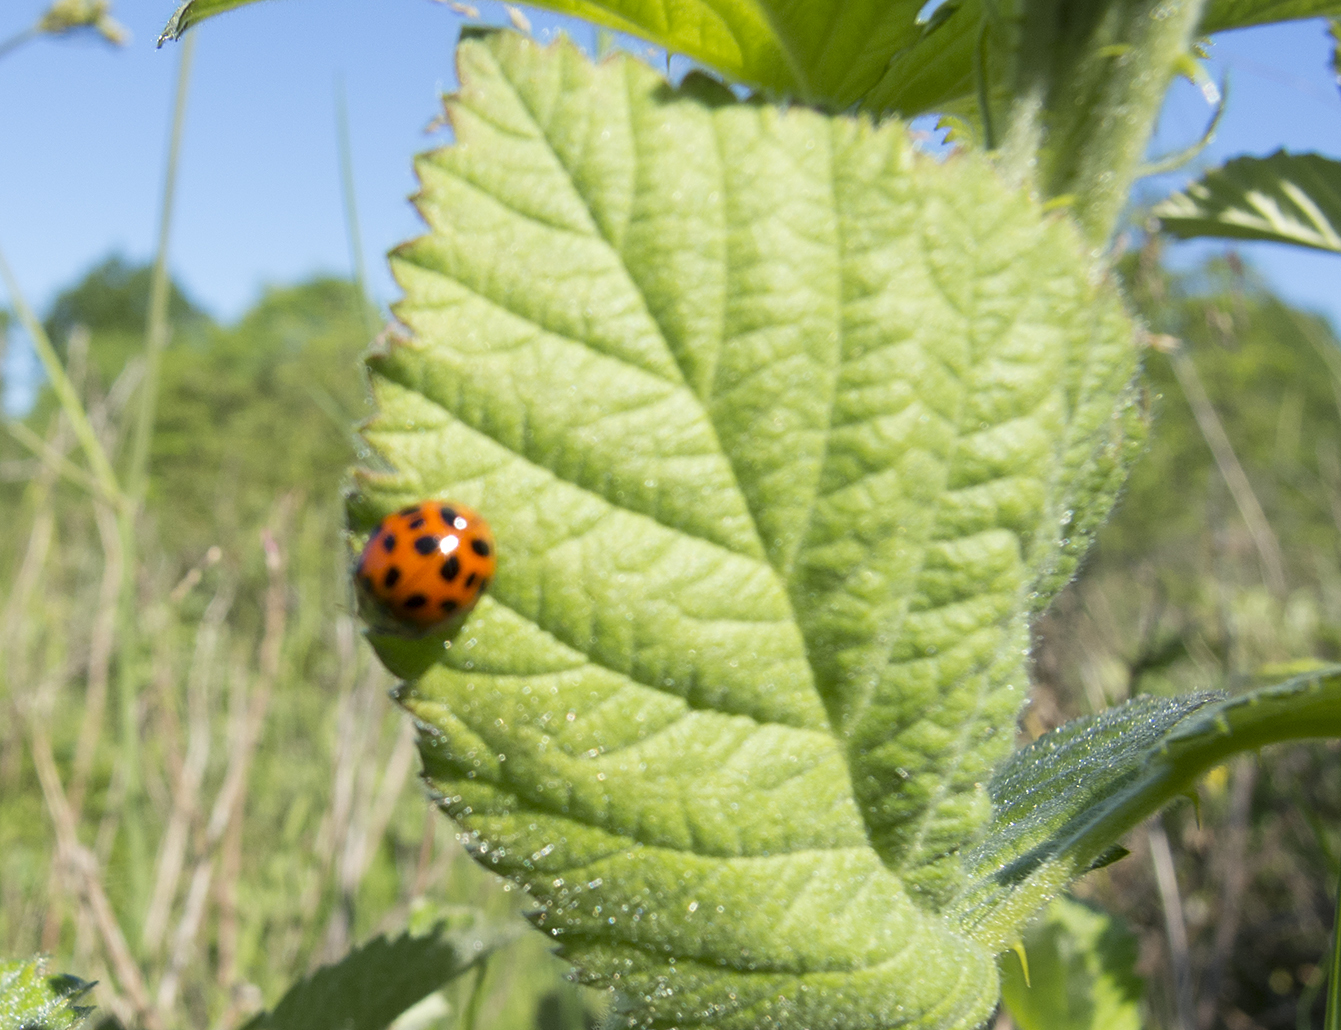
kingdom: Animalia
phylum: Arthropoda
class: Insecta
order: Coleoptera
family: Coccinellidae
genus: Harmonia
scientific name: Harmonia axyridis
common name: Harlequin ladybird
